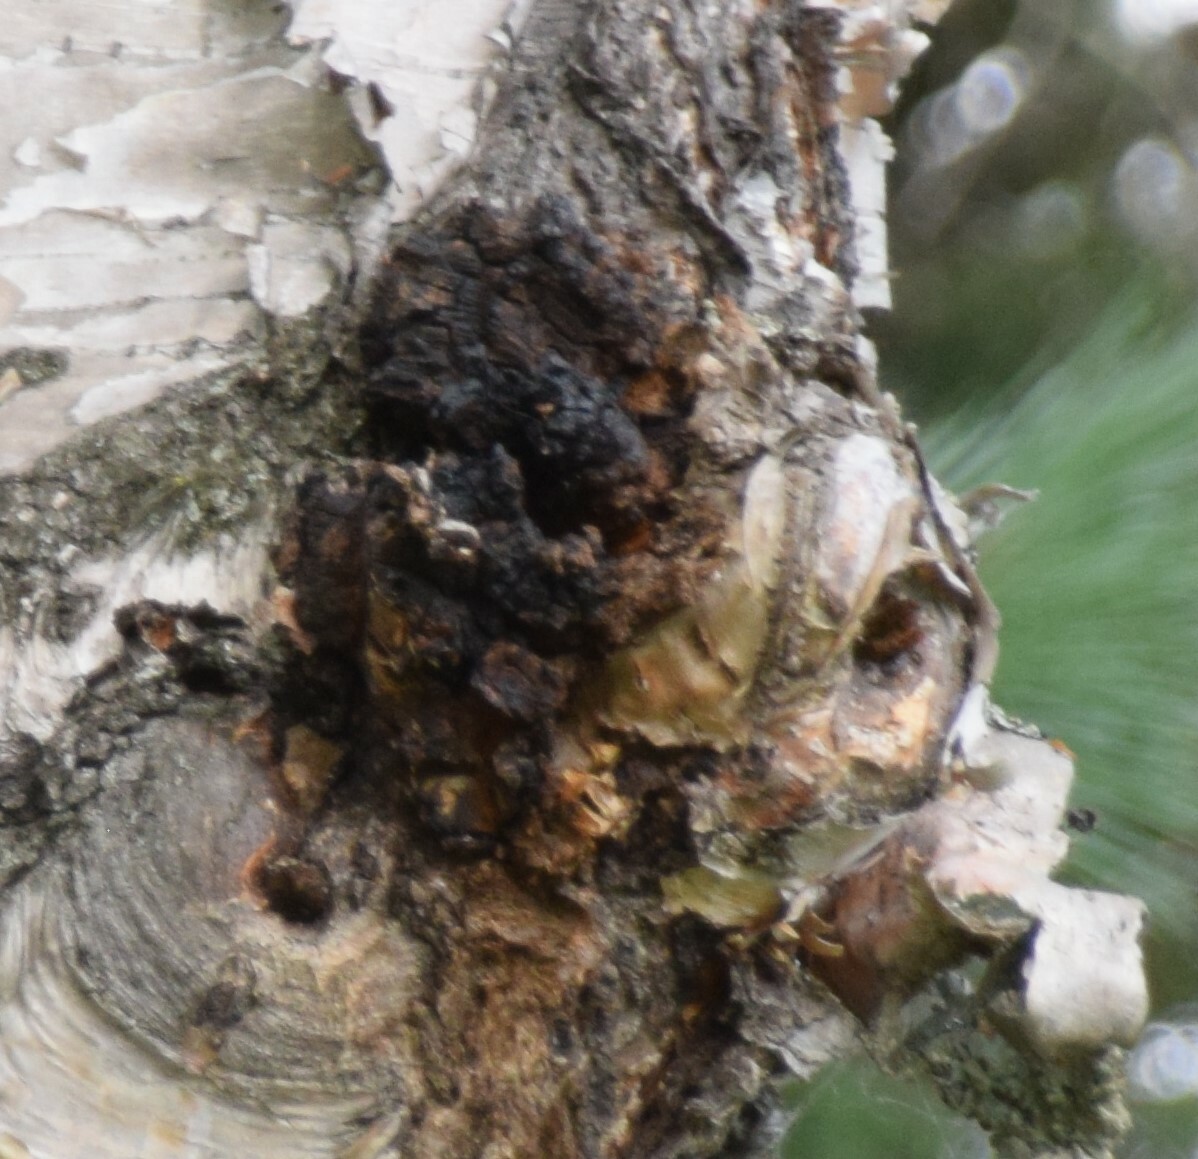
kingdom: Fungi
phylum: Basidiomycota
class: Agaricomycetes
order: Hymenochaetales
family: Hymenochaetaceae
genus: Inonotus
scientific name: Inonotus obliquus
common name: Chaga
